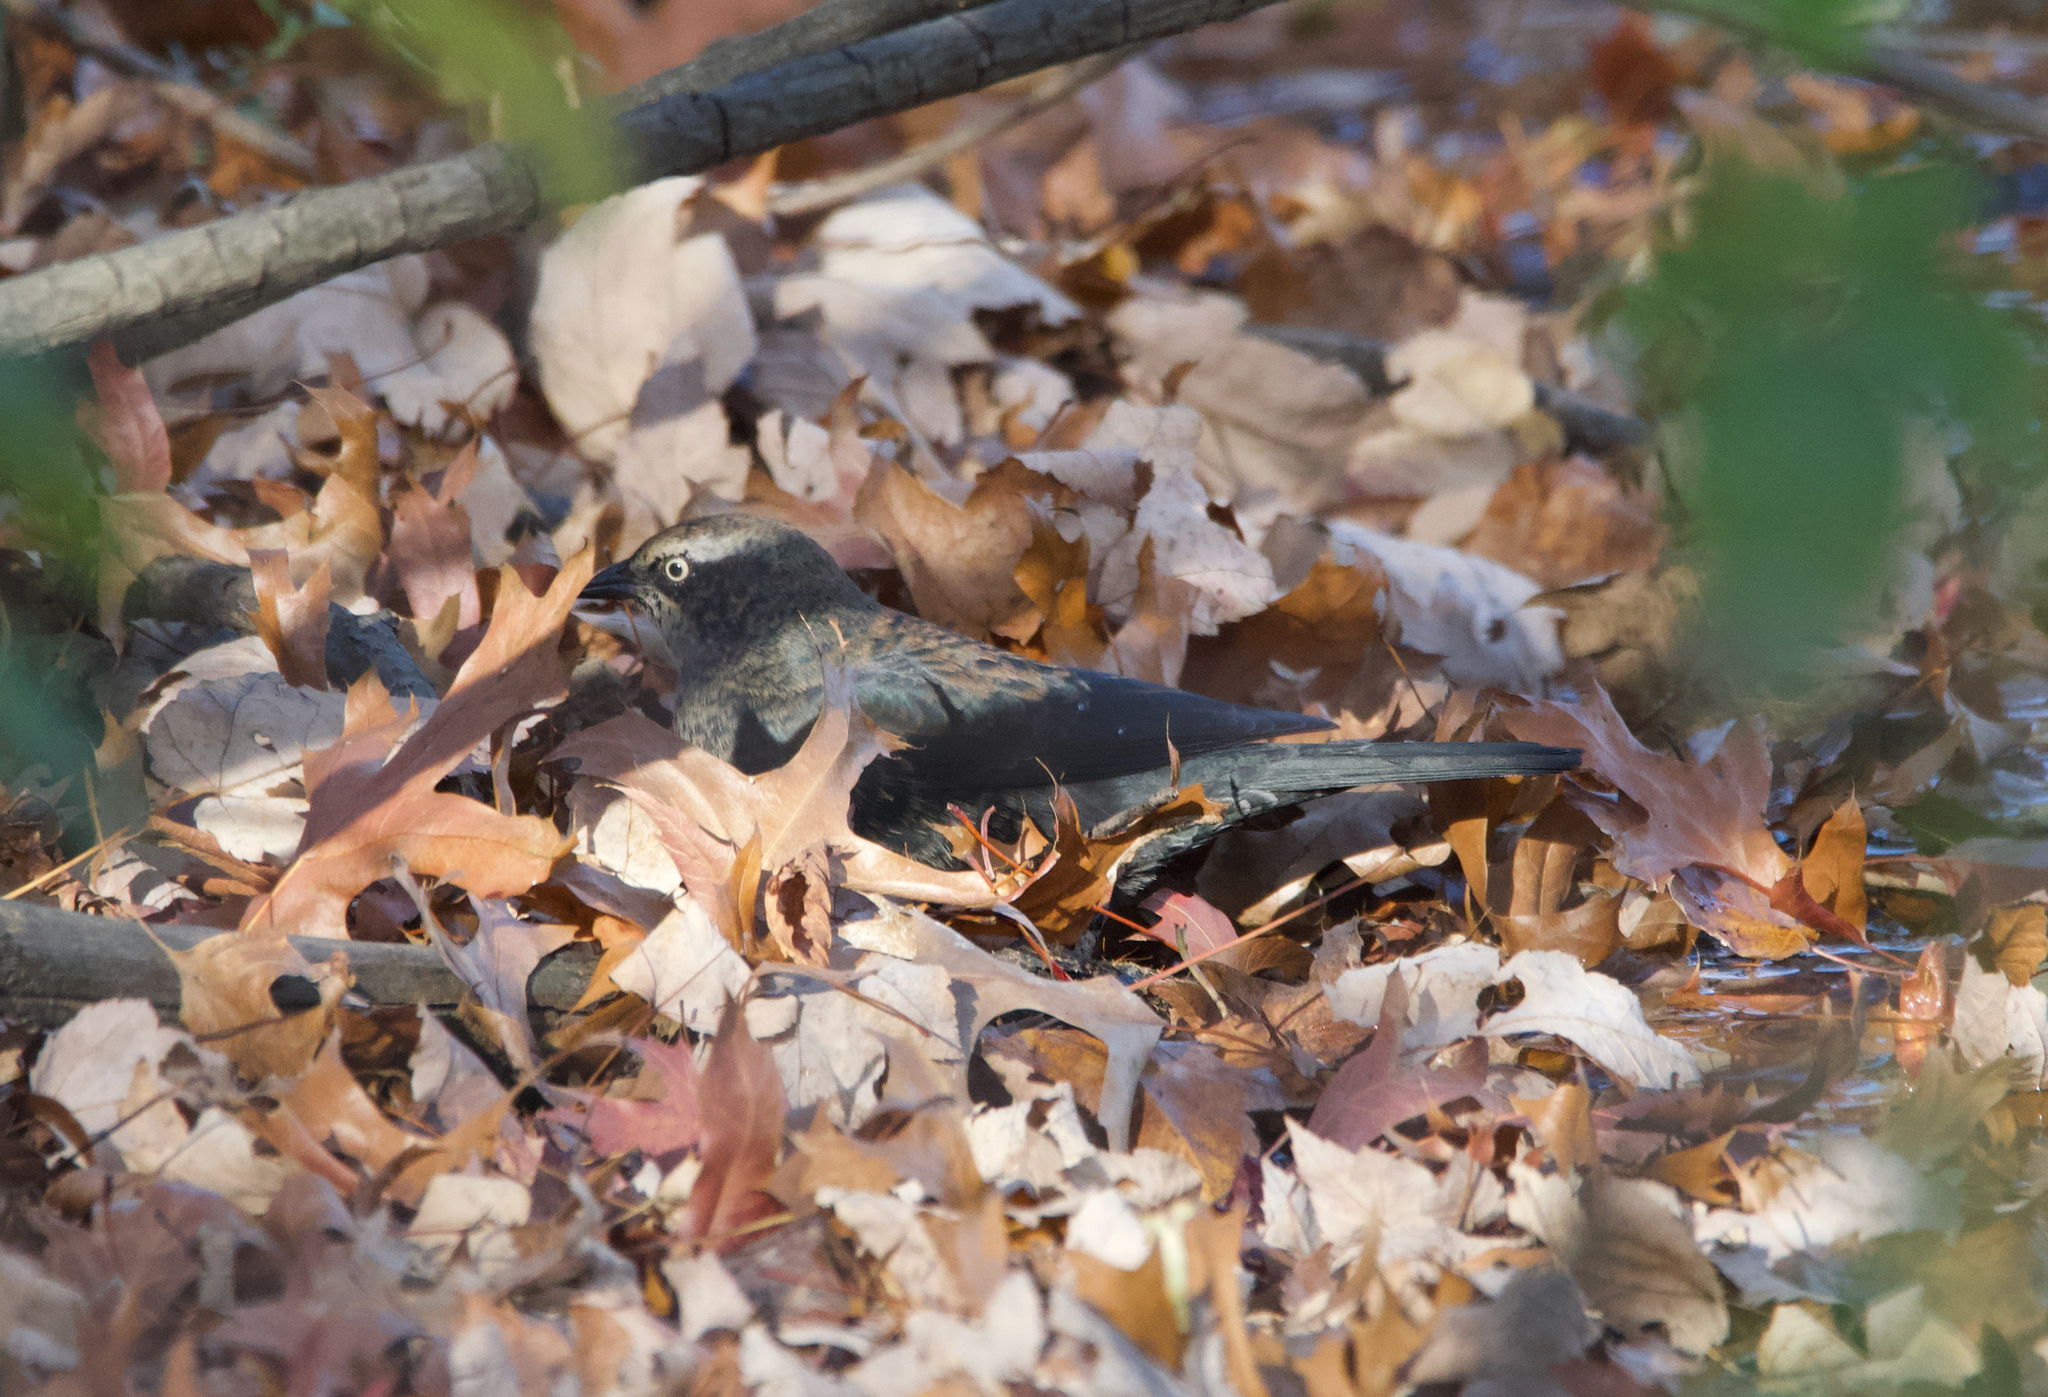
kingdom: Animalia
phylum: Chordata
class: Aves
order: Passeriformes
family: Icteridae
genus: Euphagus
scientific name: Euphagus carolinus
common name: Rusty blackbird
